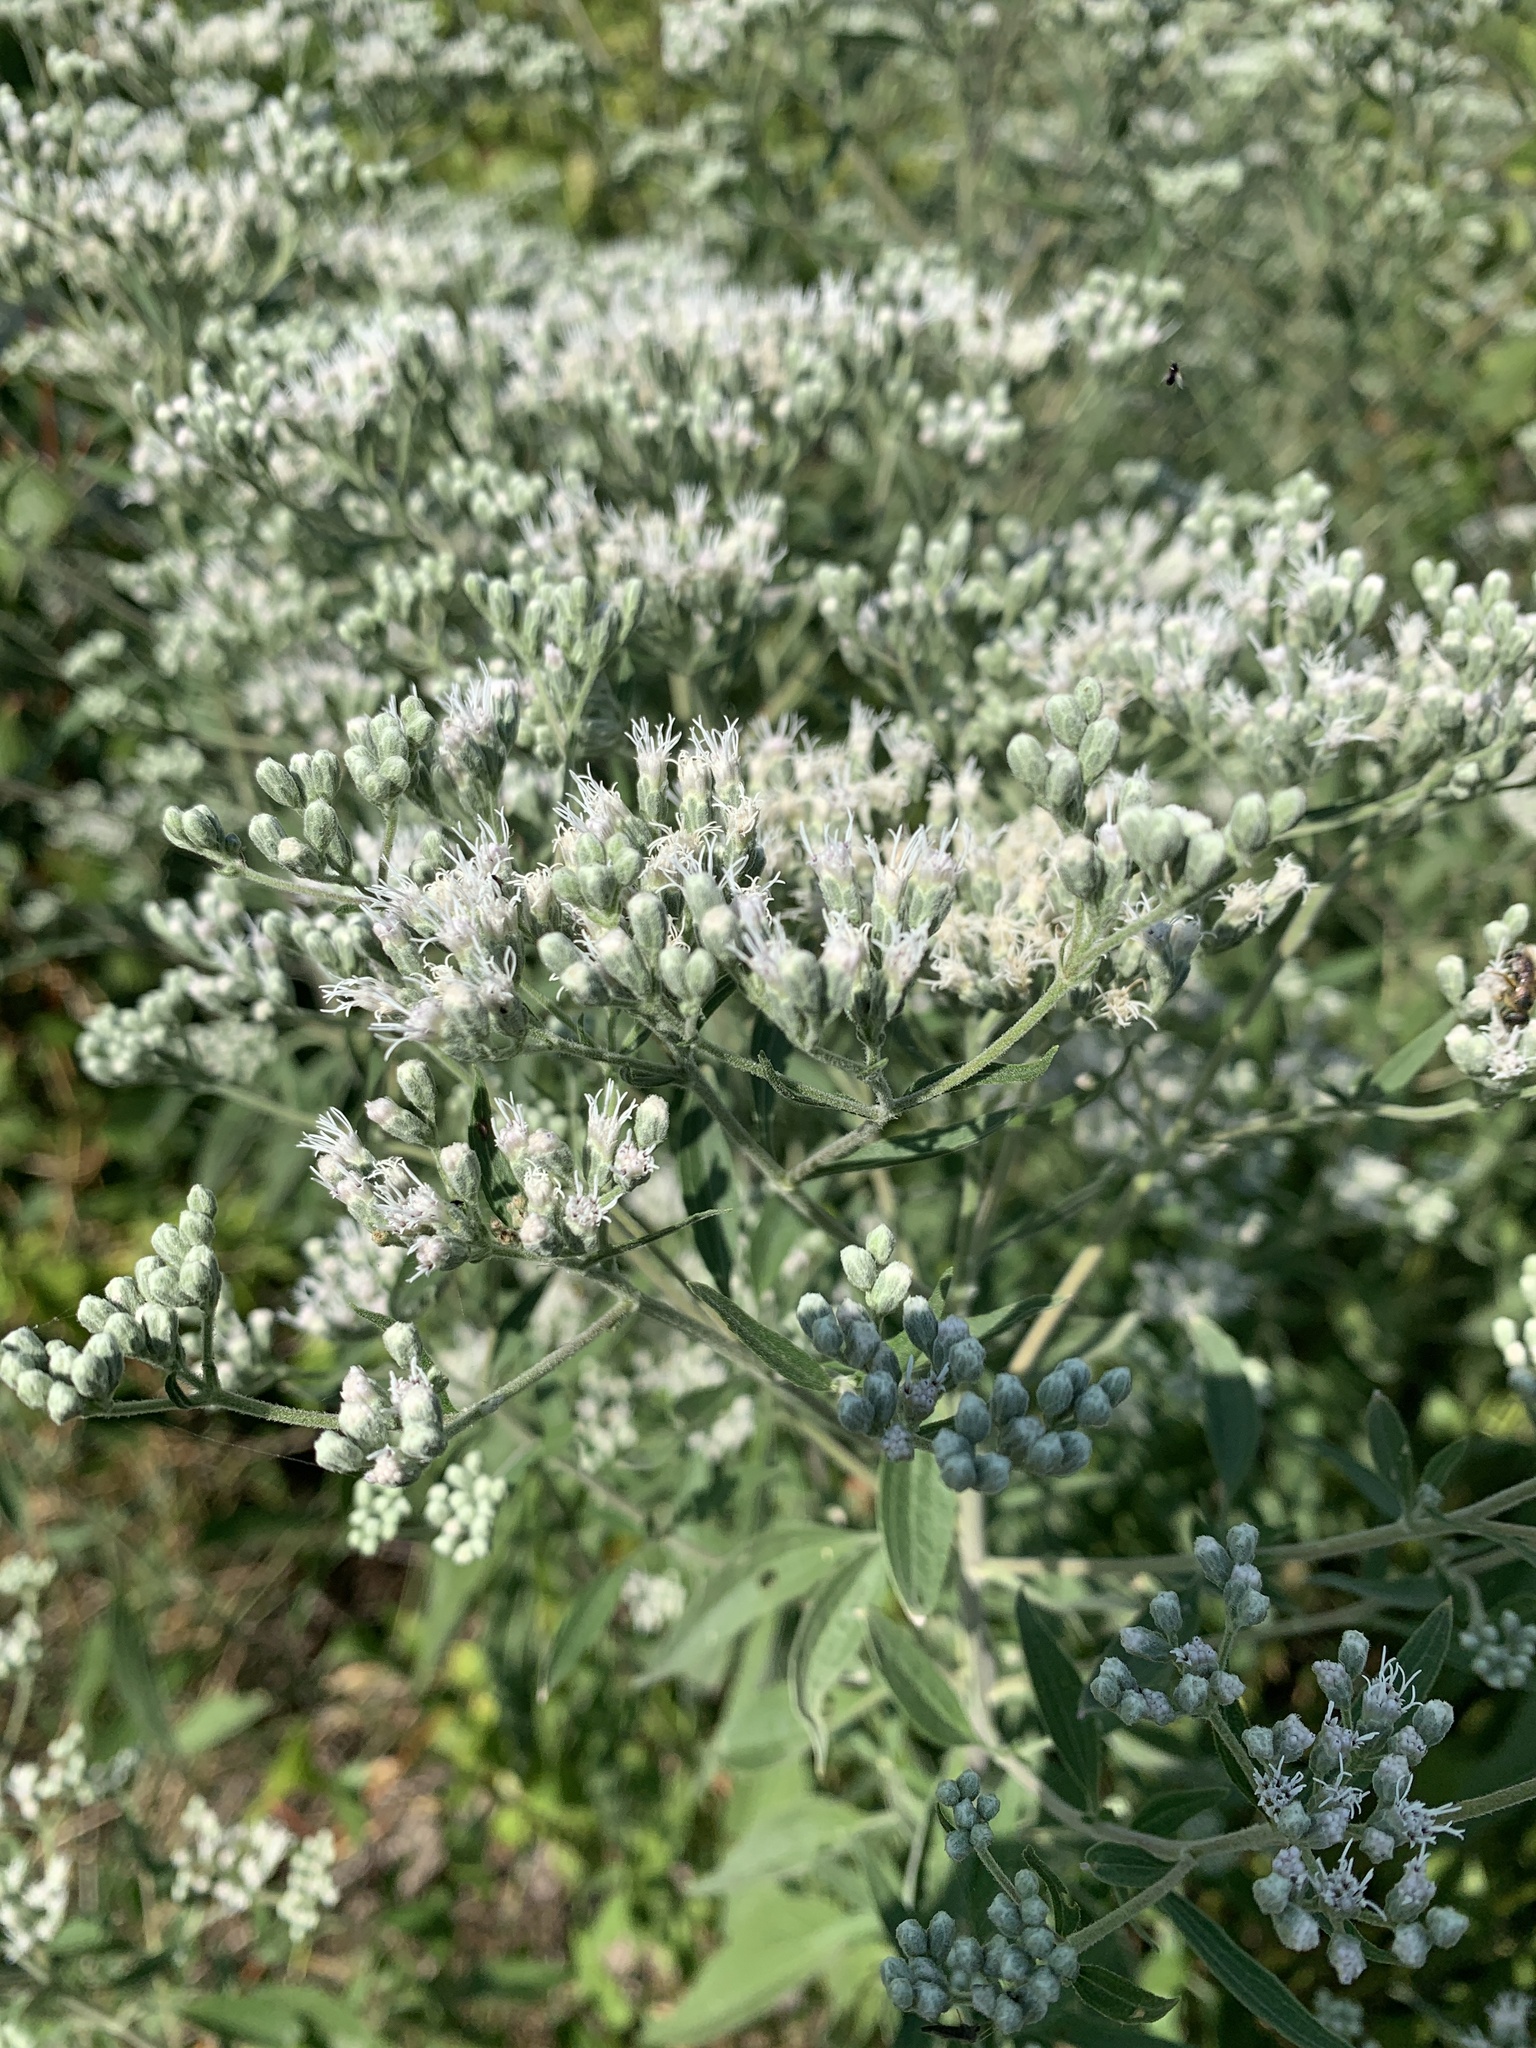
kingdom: Plantae
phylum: Tracheophyta
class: Magnoliopsida
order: Asterales
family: Asteraceae
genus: Eupatorium
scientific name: Eupatorium altissimum
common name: Tall thoroughwort
